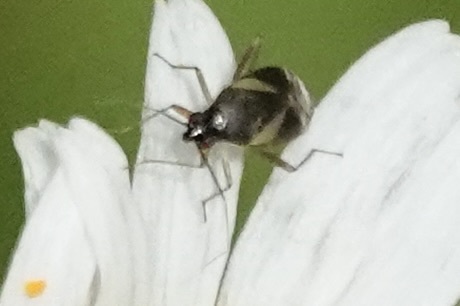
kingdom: Animalia
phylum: Arthropoda
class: Insecta
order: Hemiptera
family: Miridae
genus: Plagiognathus
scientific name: Plagiognathus obscurus
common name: Obscure plant bug
